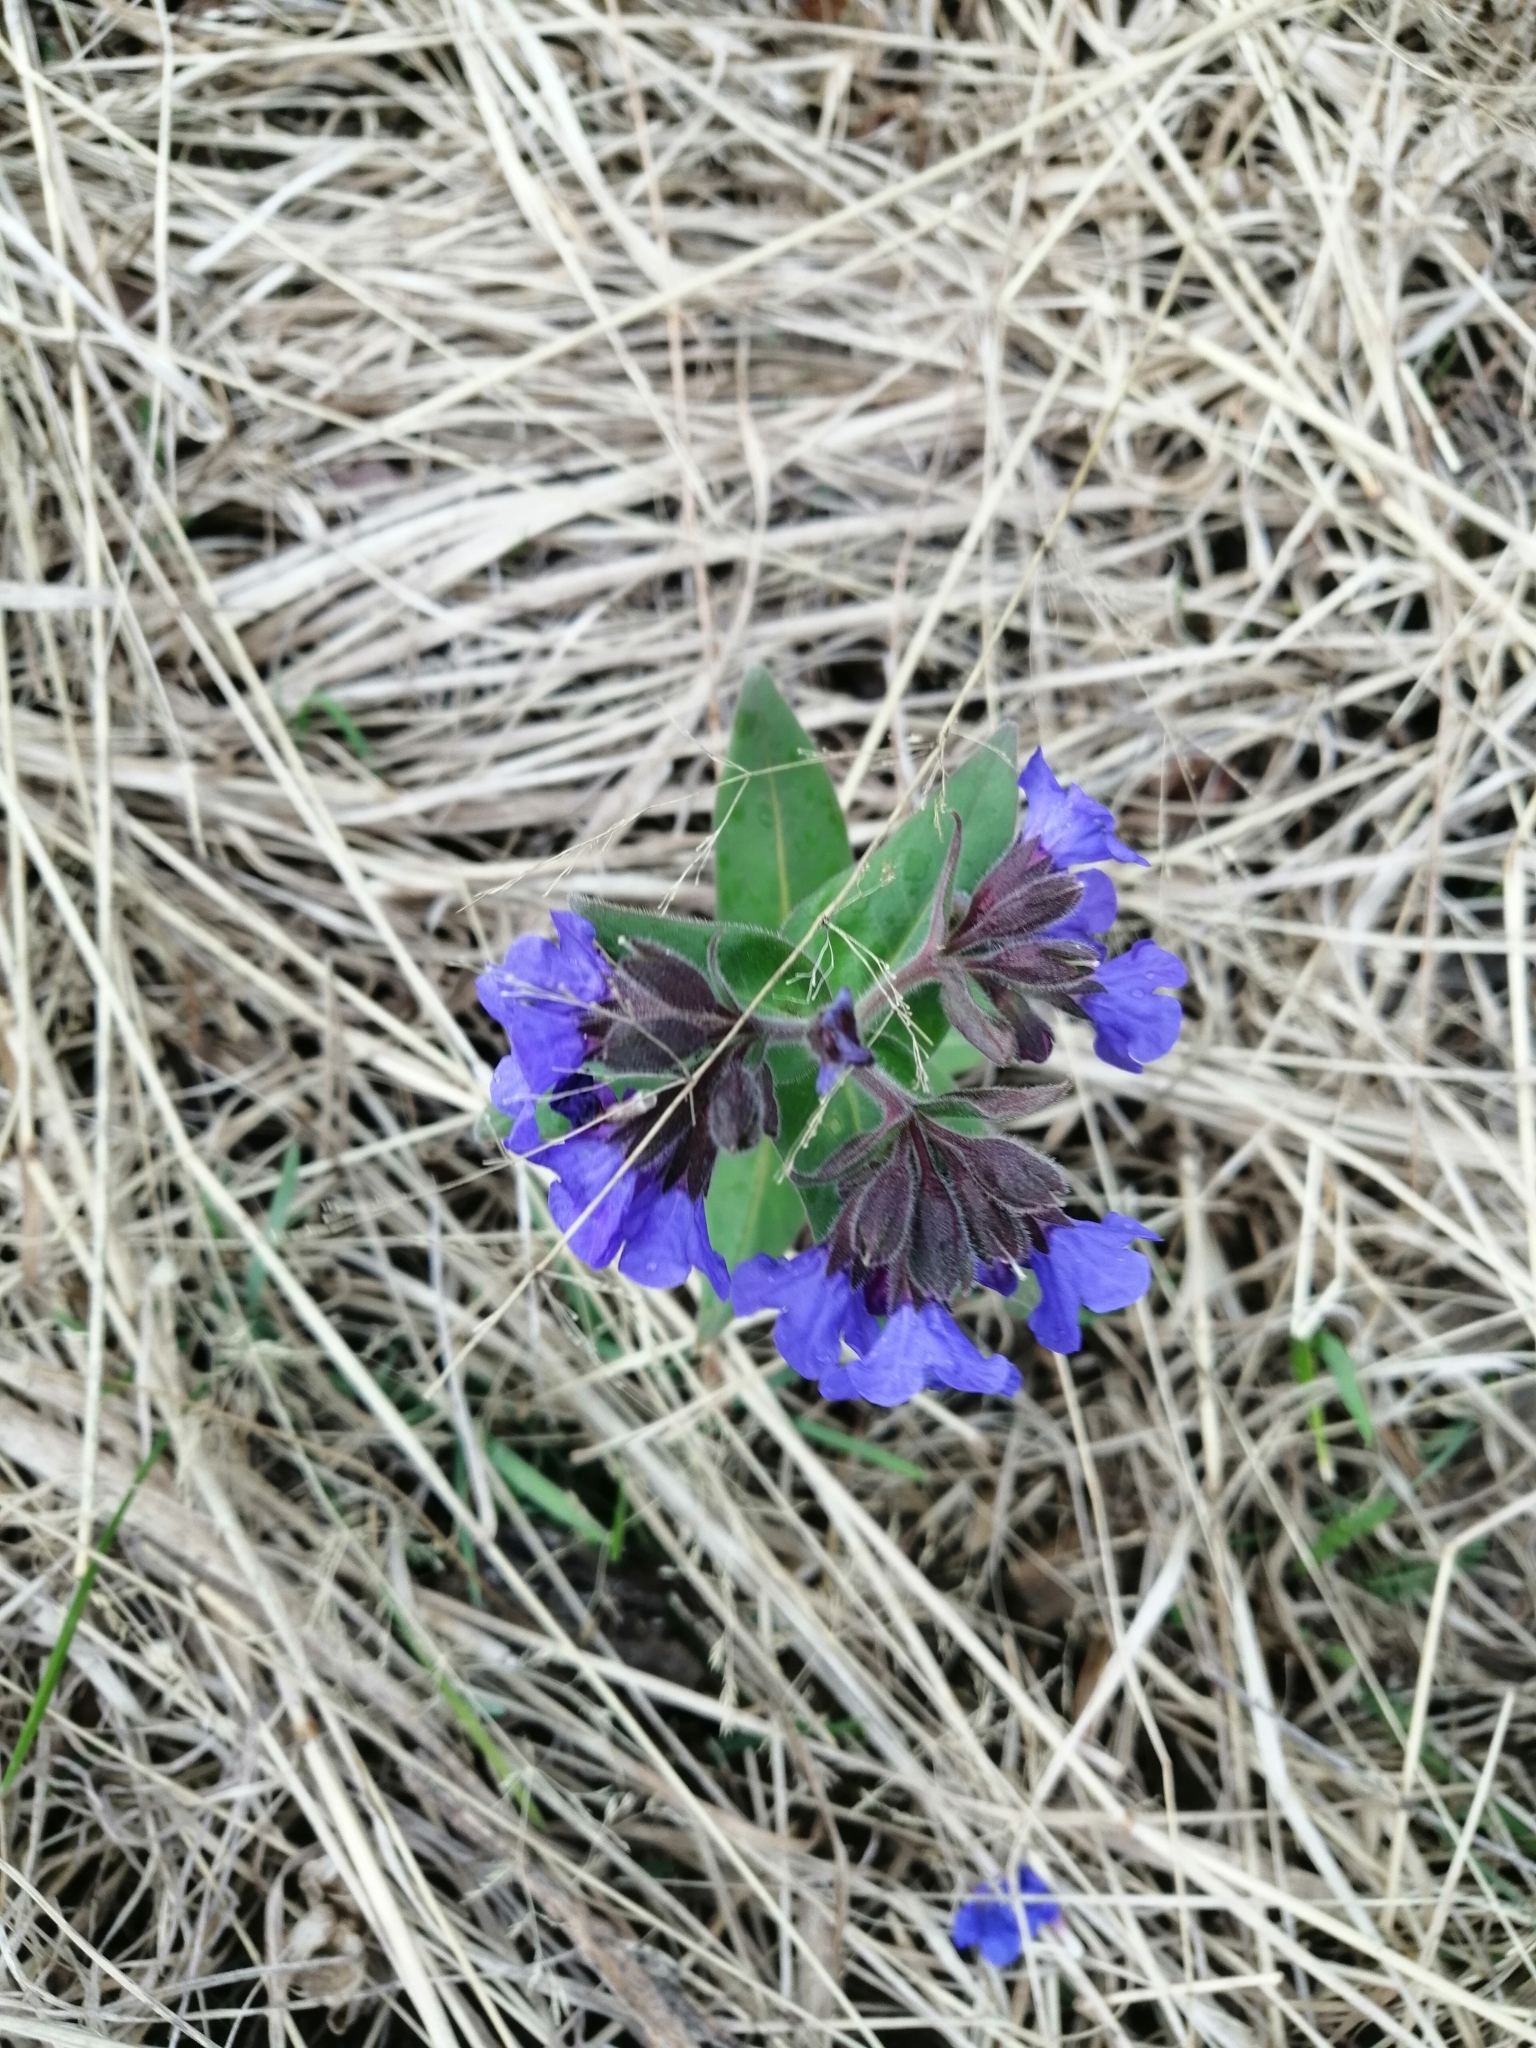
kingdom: Plantae
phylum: Tracheophyta
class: Magnoliopsida
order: Boraginales
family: Boraginaceae
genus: Pulmonaria
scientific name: Pulmonaria mollis
